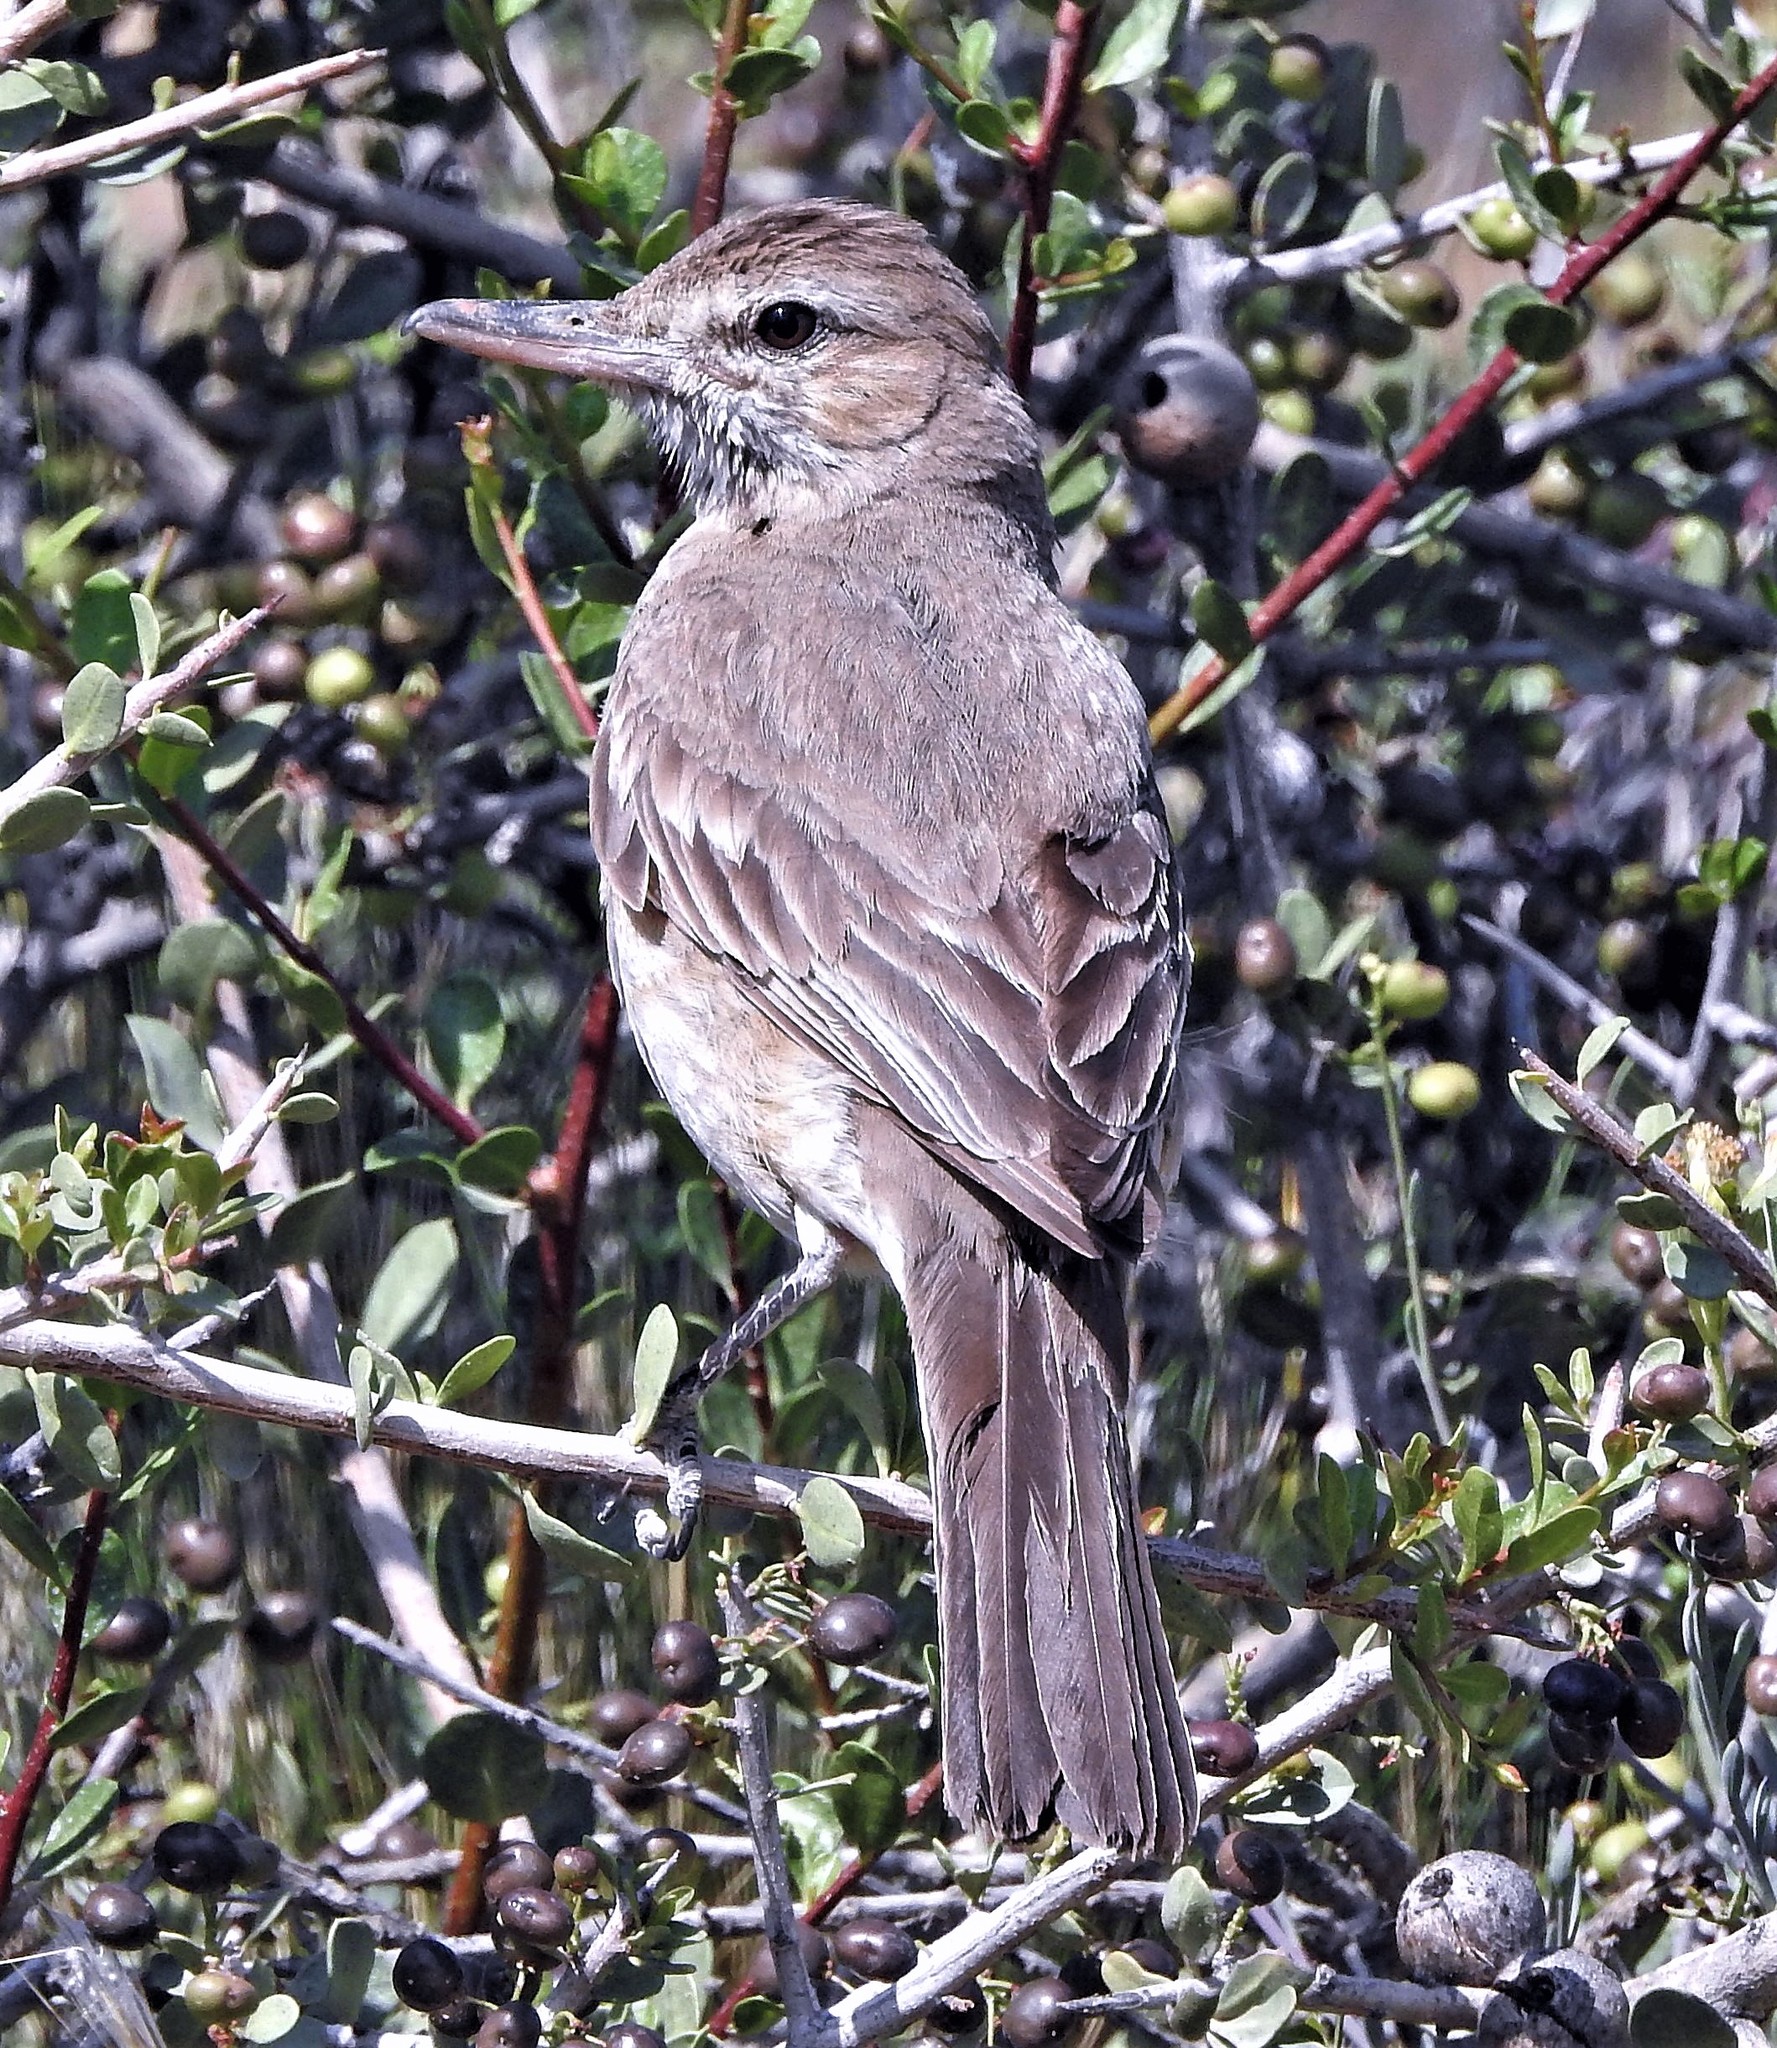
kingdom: Animalia
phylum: Chordata
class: Aves
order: Passeriformes
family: Tyrannidae
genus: Agriornis
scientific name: Agriornis micropterus
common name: Grey-bellied shrike-tyrant
